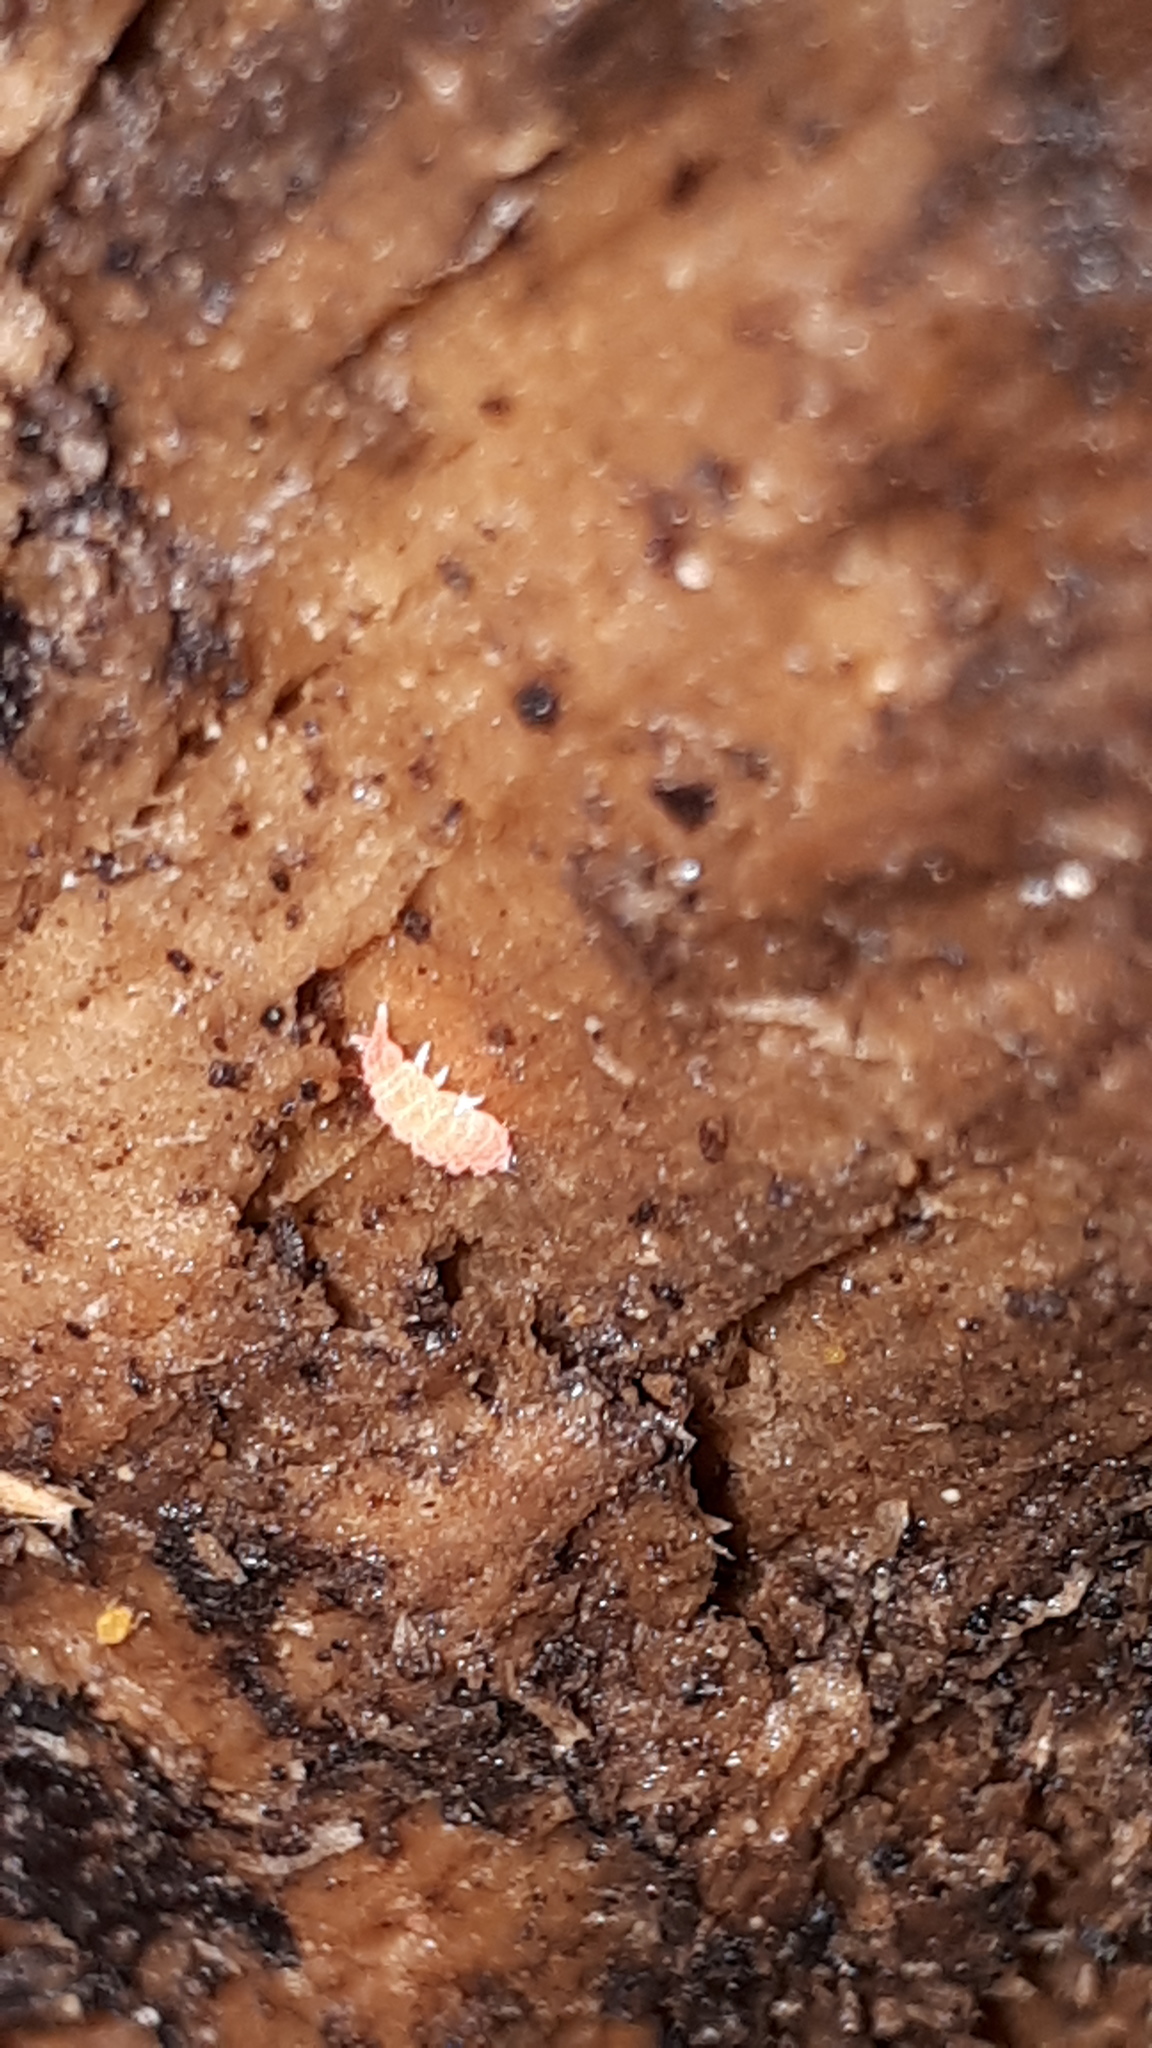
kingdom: Animalia
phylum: Arthropoda
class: Collembola
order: Poduromorpha
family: Neanuridae
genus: Bilobella
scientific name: Bilobella braunerae
